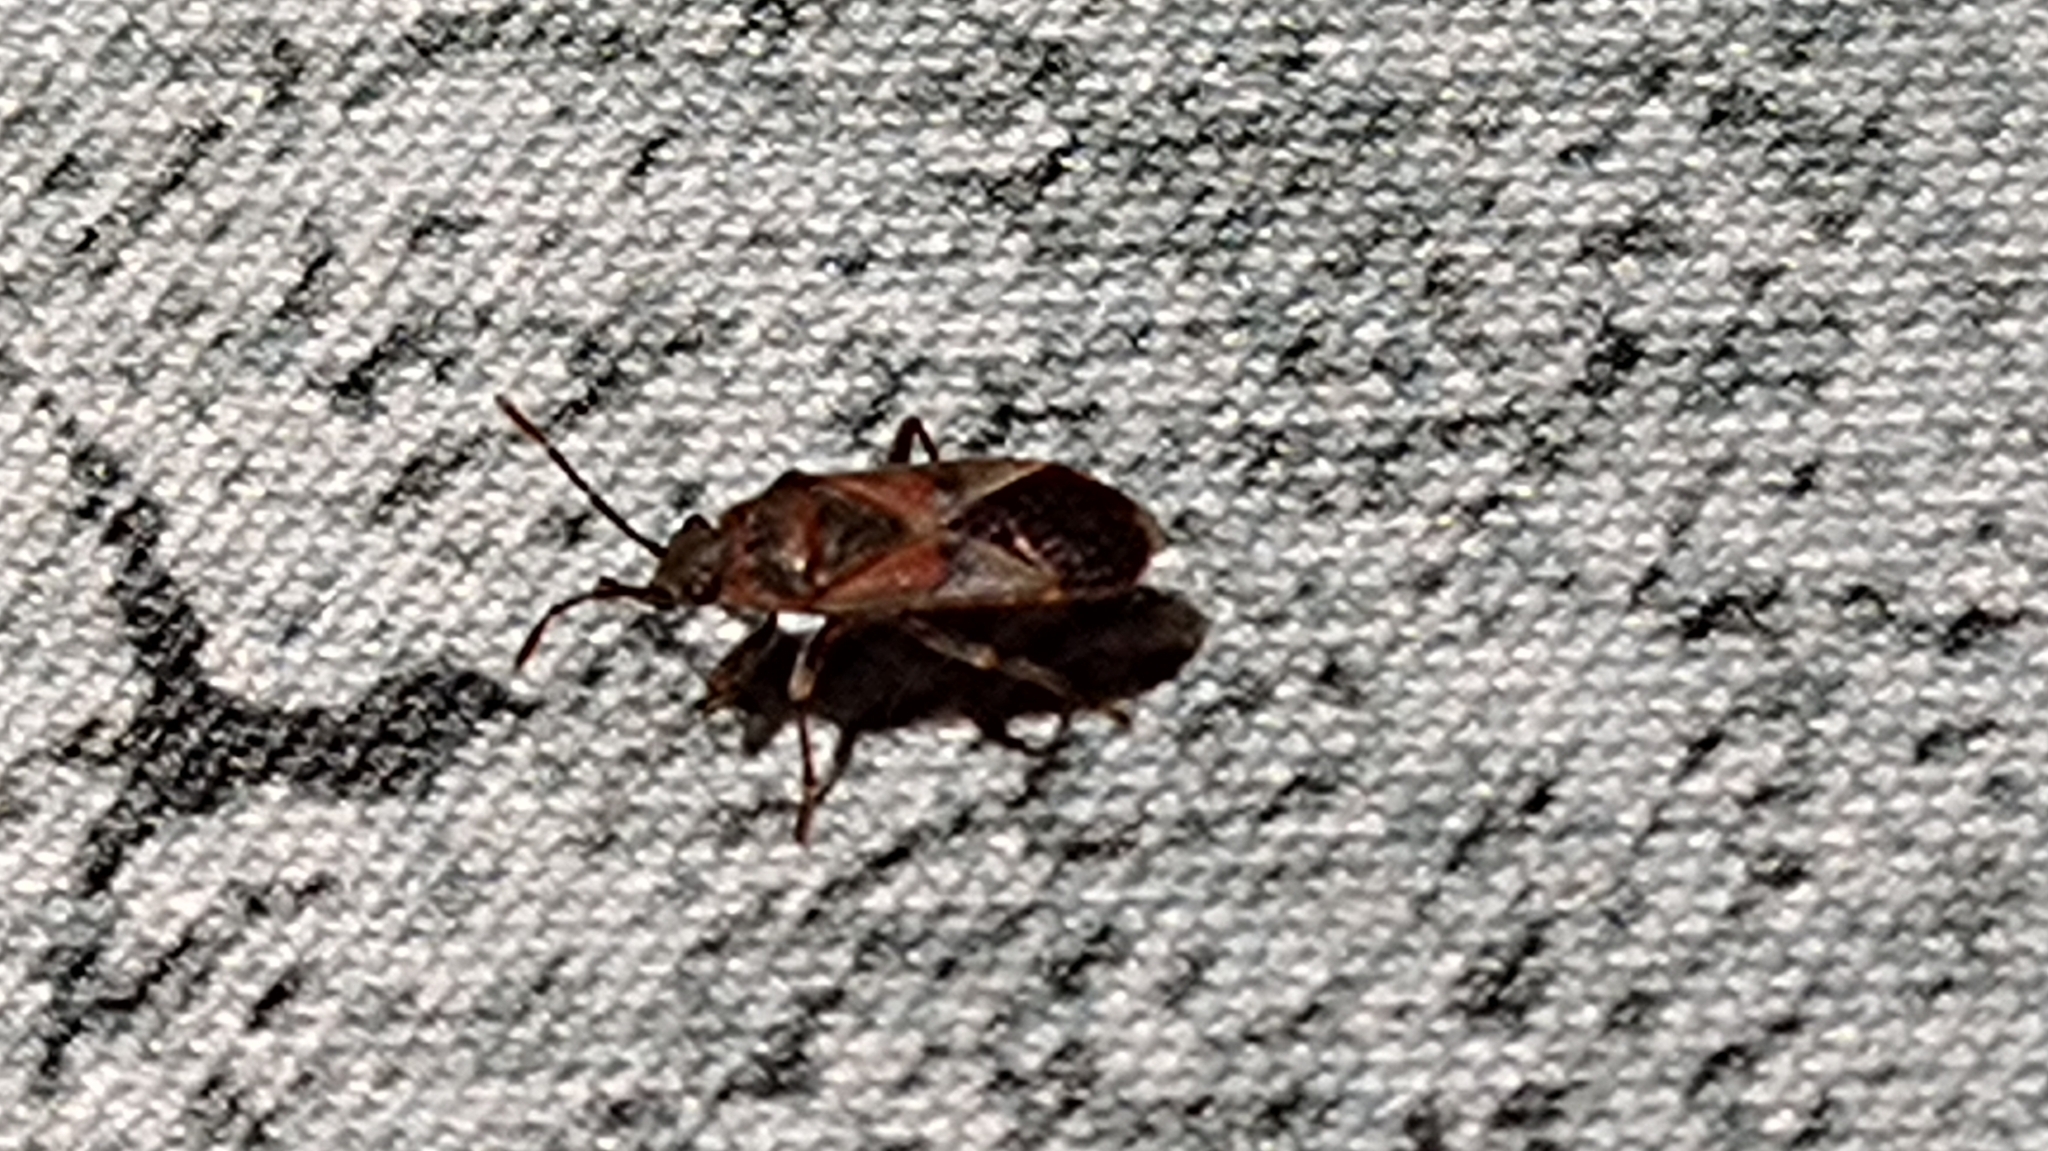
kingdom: Animalia
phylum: Arthropoda
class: Insecta
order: Hemiptera
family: Lygaeidae
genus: Arocatus
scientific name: Arocatus melanocephalus
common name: Lygaeid bug
